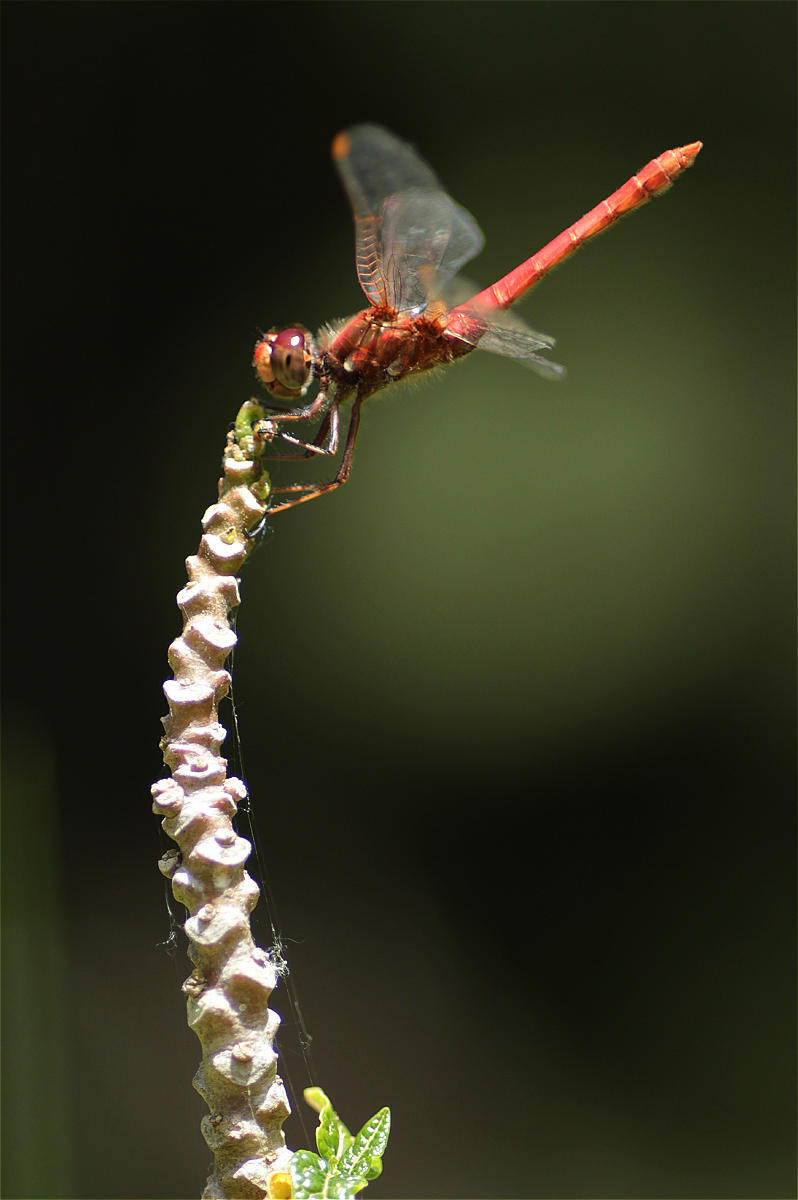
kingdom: Animalia
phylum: Arthropoda
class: Insecta
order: Odonata
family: Libellulidae
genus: Sympetrum
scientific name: Sympetrum gilvum
